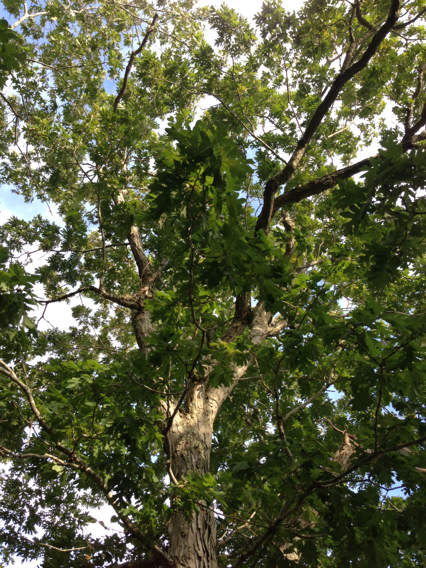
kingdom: Plantae
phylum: Tracheophyta
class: Magnoliopsida
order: Fagales
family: Fagaceae
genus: Quercus
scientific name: Quercus alba
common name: White oak
